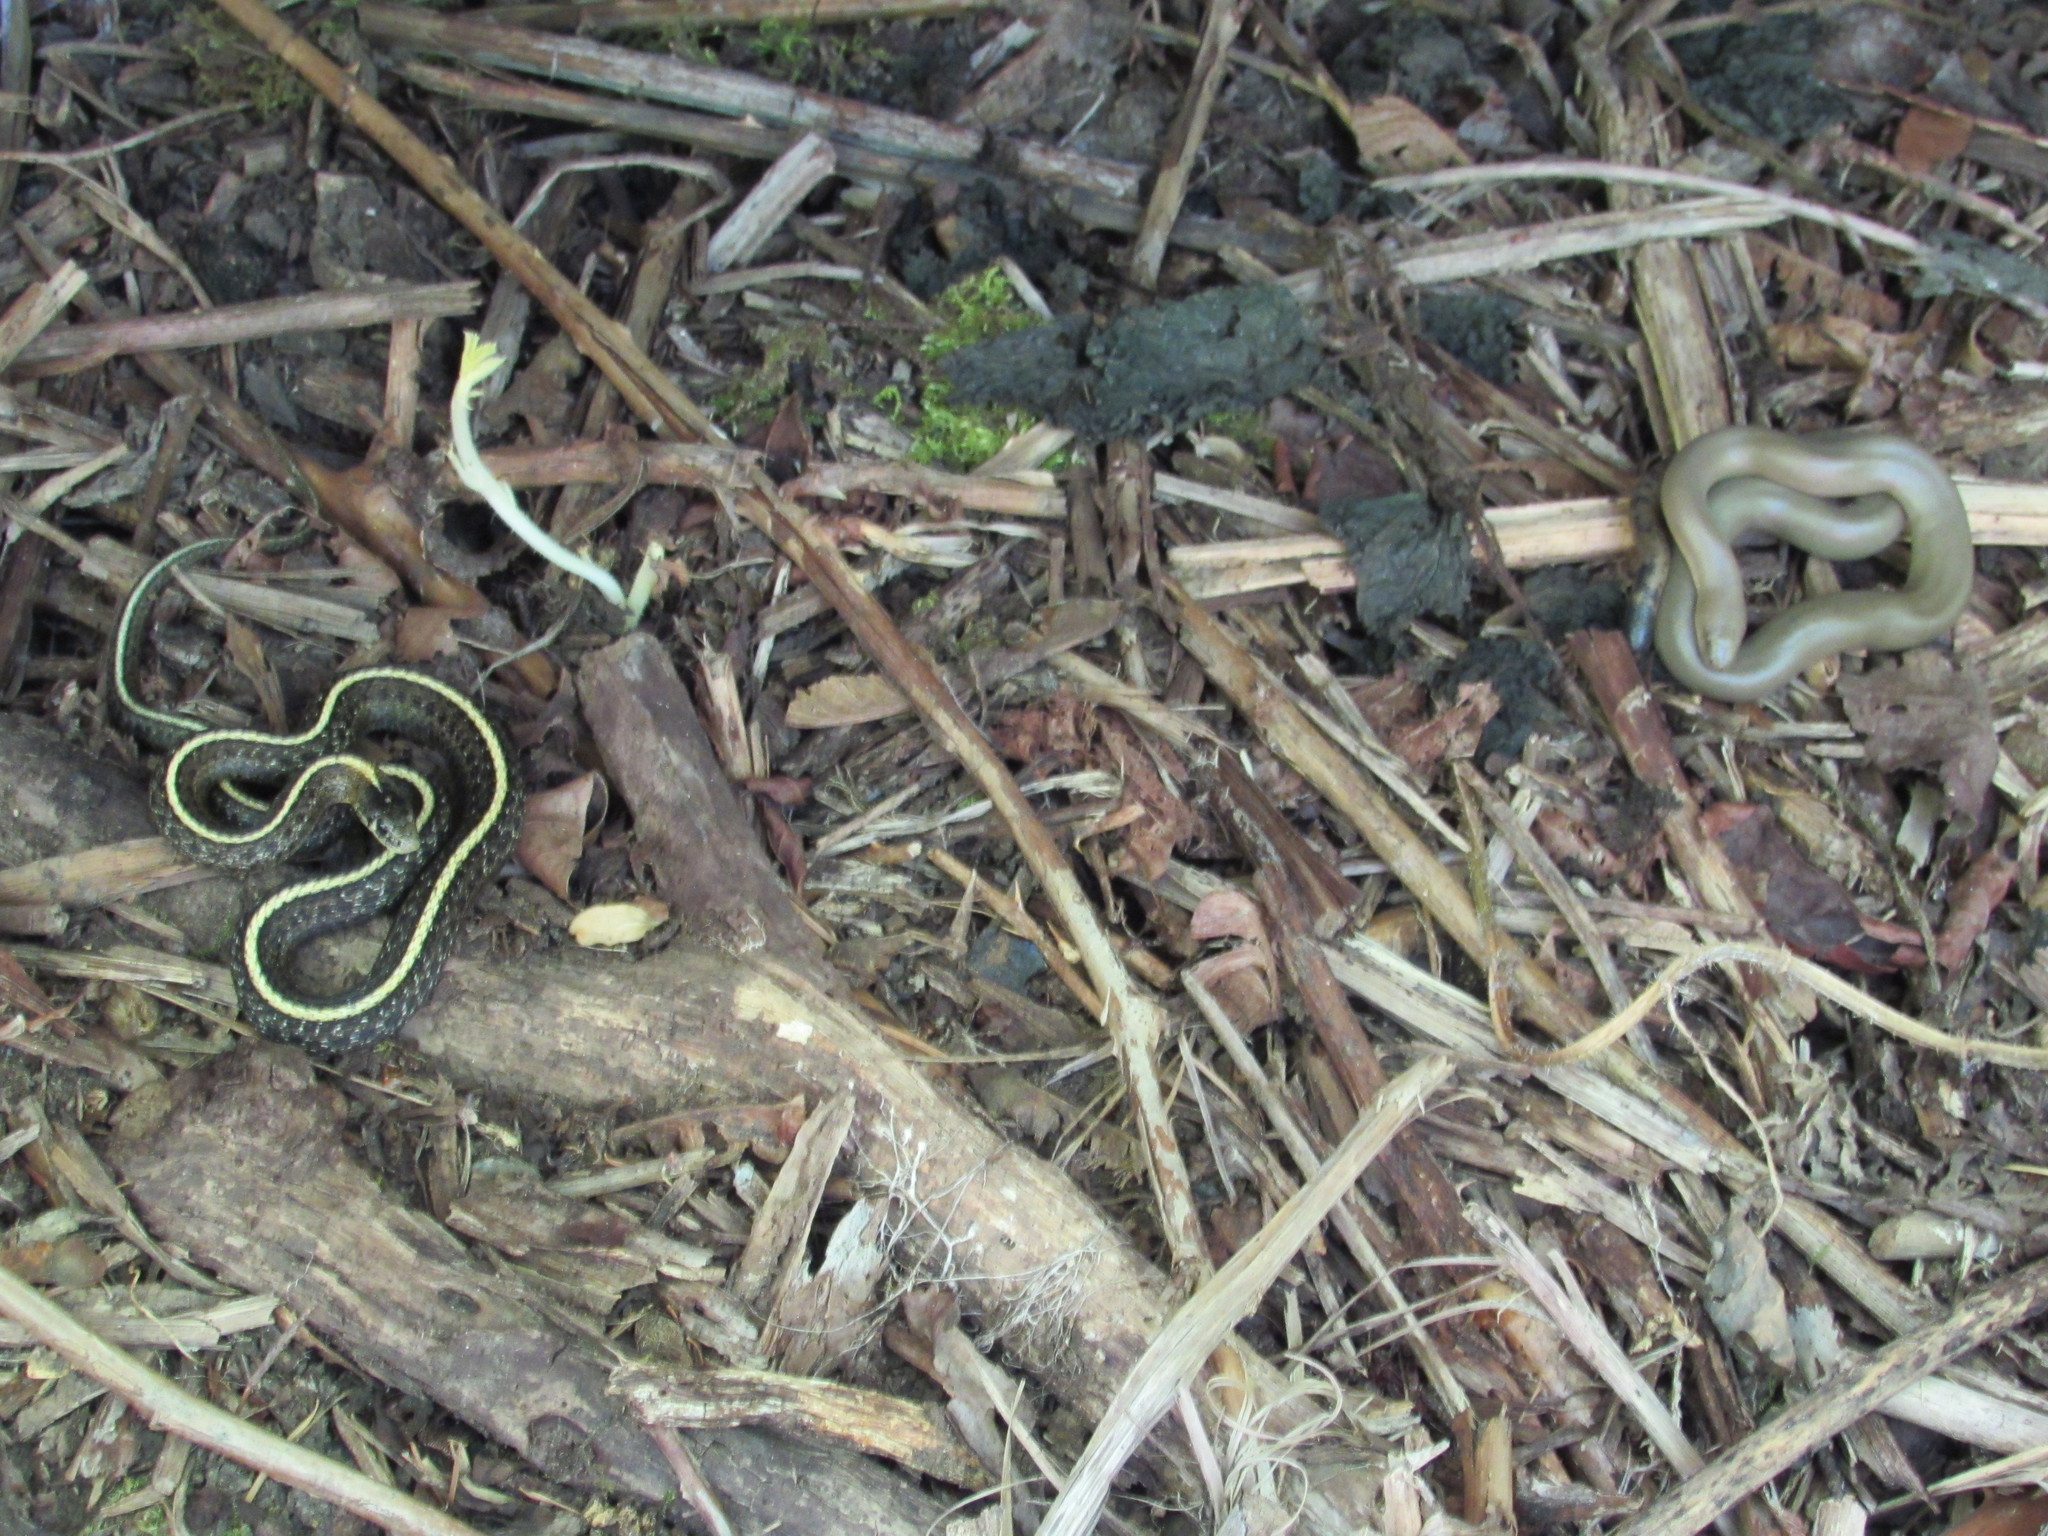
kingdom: Animalia
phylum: Chordata
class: Squamata
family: Colubridae
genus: Thamnophis
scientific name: Thamnophis ordinoides
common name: Northwestern garter snake
